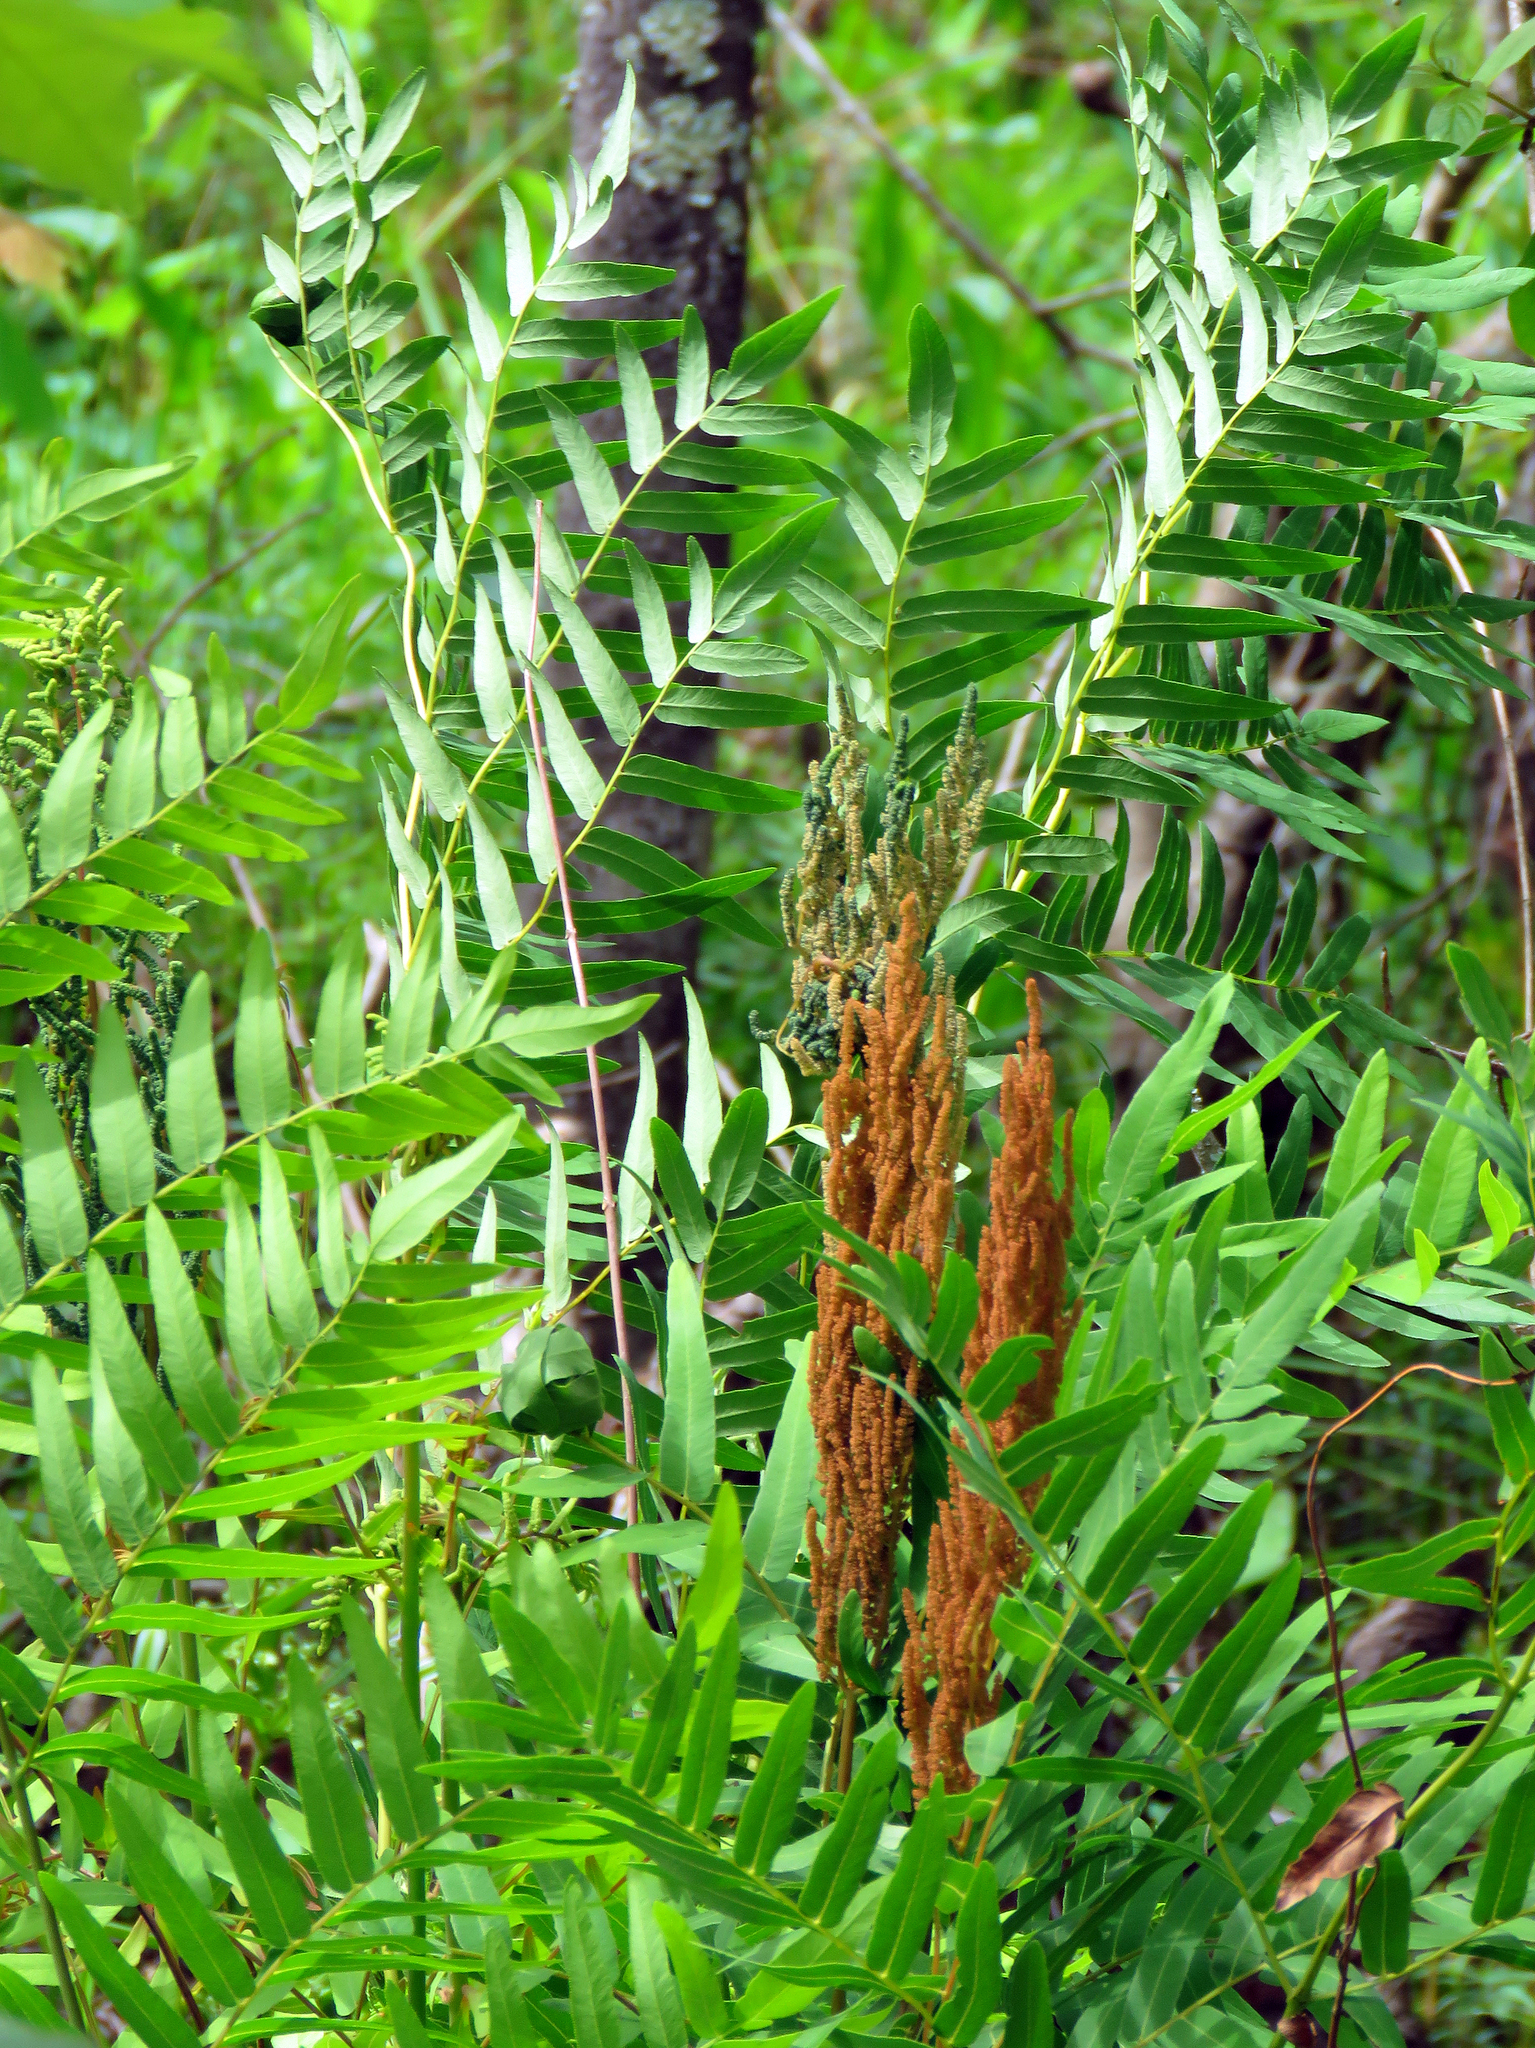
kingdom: Plantae
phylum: Tracheophyta
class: Polypodiopsida
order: Osmundales
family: Osmundaceae
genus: Osmunda
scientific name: Osmunda spectabilis
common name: American royal fern
